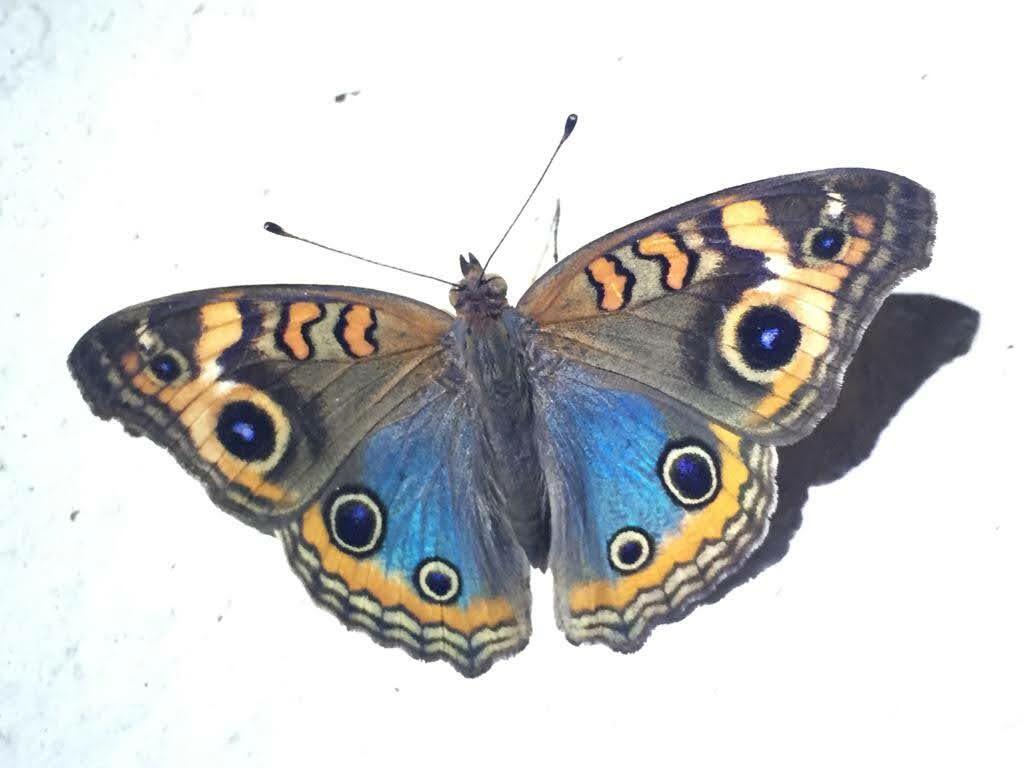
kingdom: Animalia
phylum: Arthropoda
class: Insecta
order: Lepidoptera
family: Nymphalidae
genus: Junonia
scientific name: Junonia lavinia
